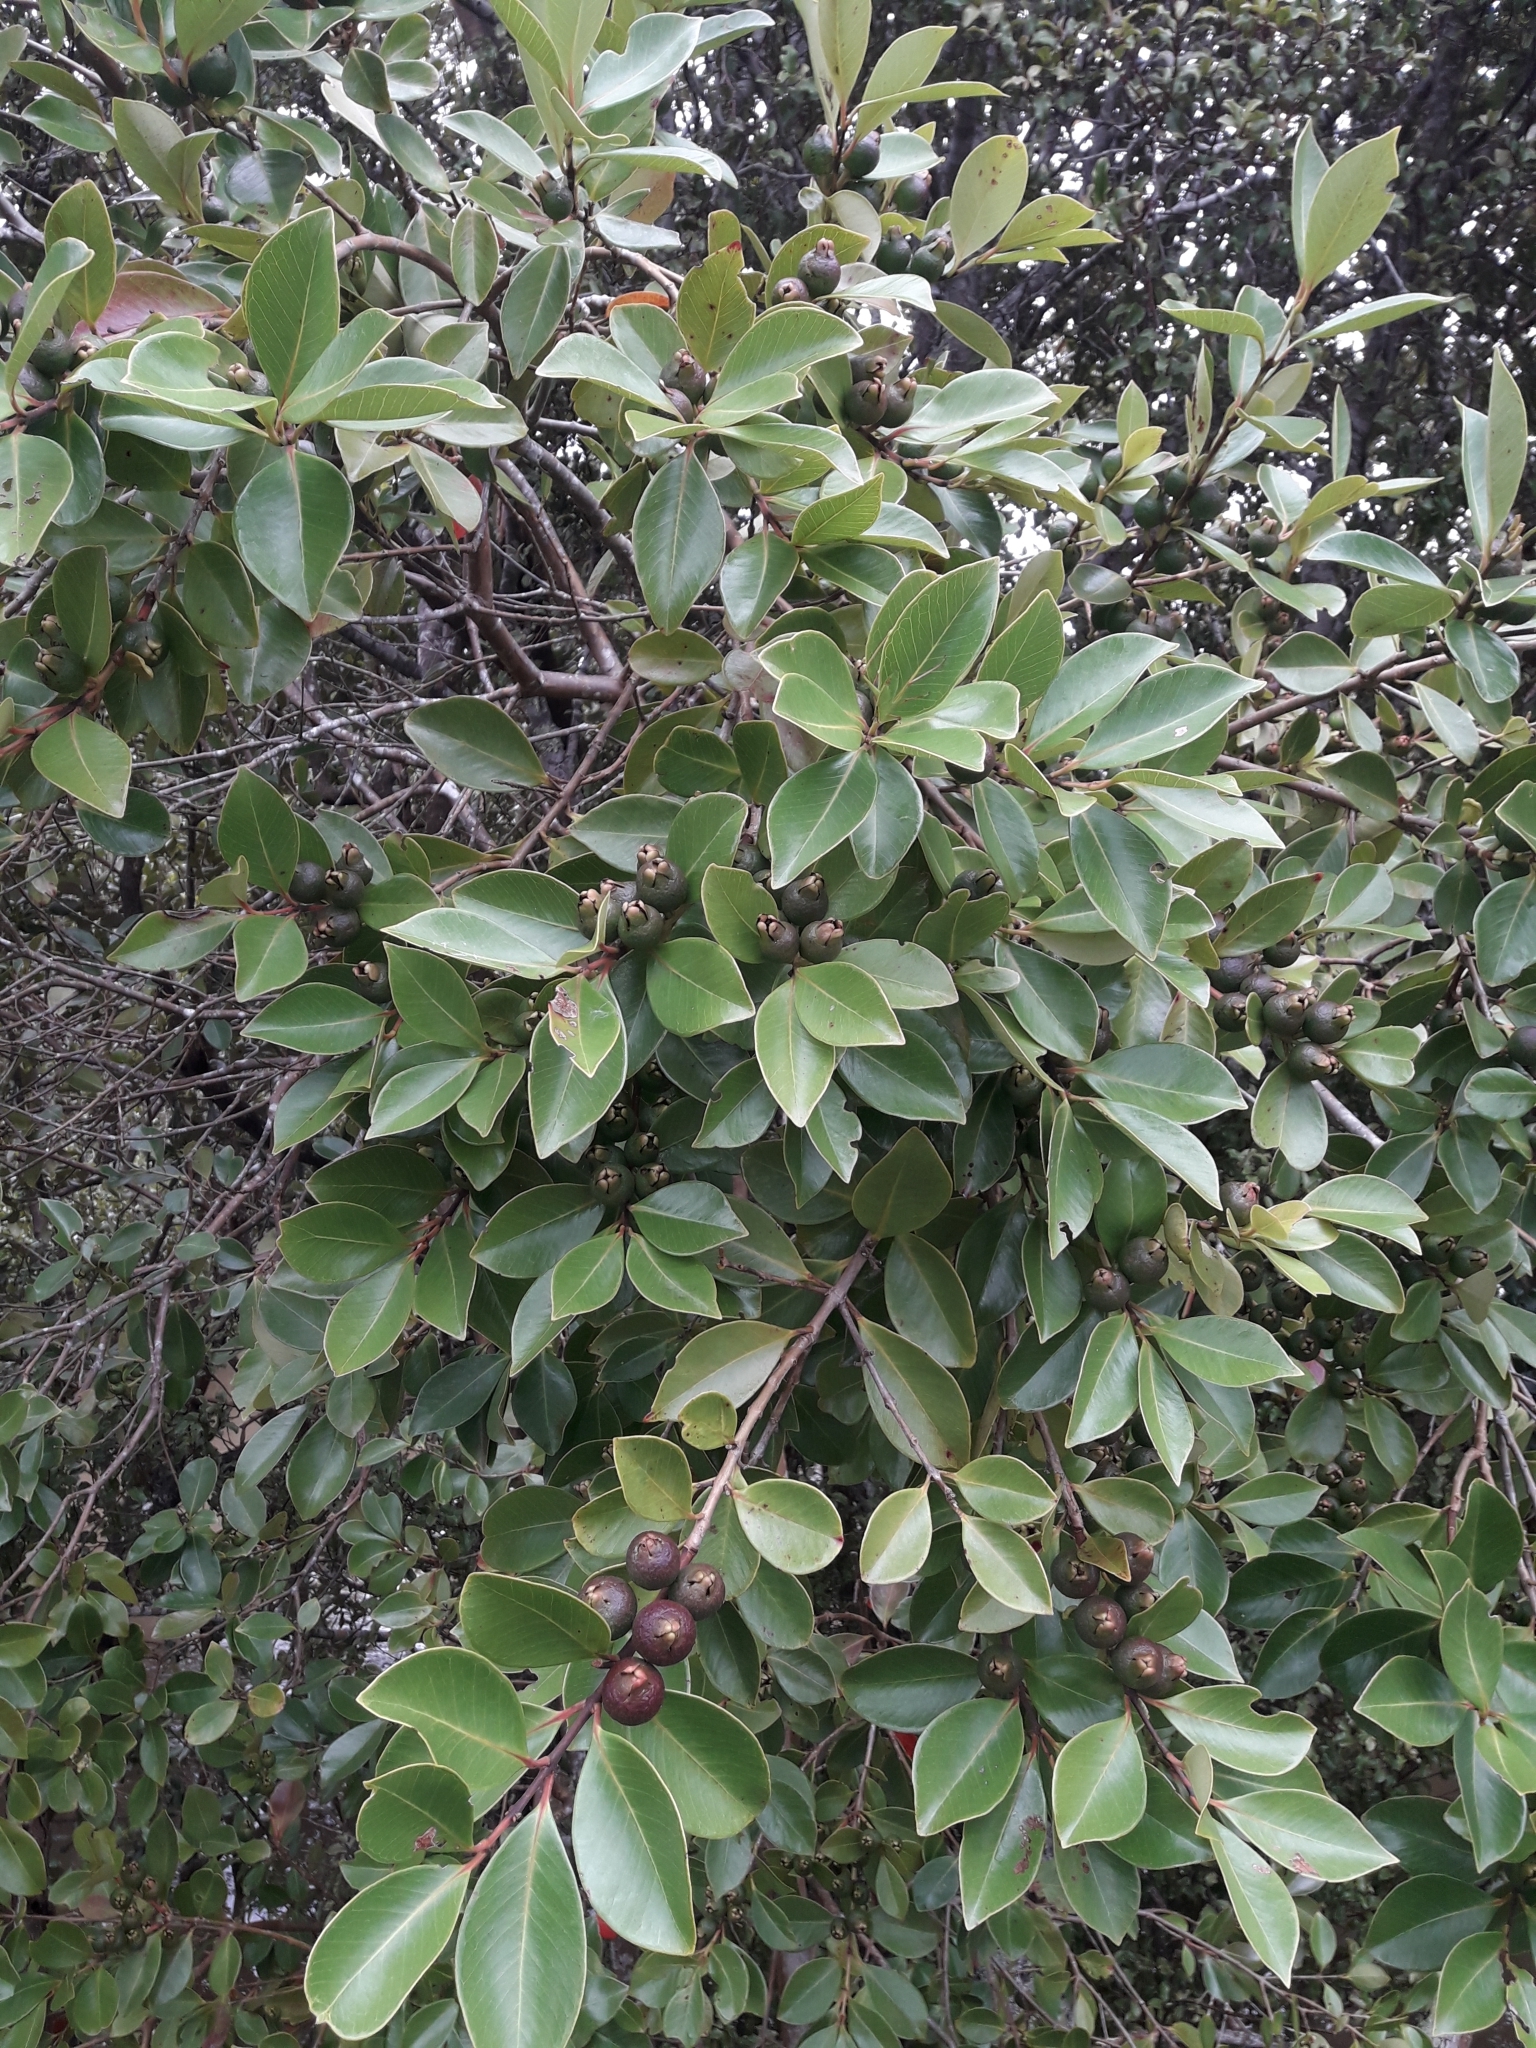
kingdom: Plantae
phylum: Tracheophyta
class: Magnoliopsida
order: Myrtales
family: Myrtaceae
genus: Psidium
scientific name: Psidium cattleianum
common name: Strawberry guava
